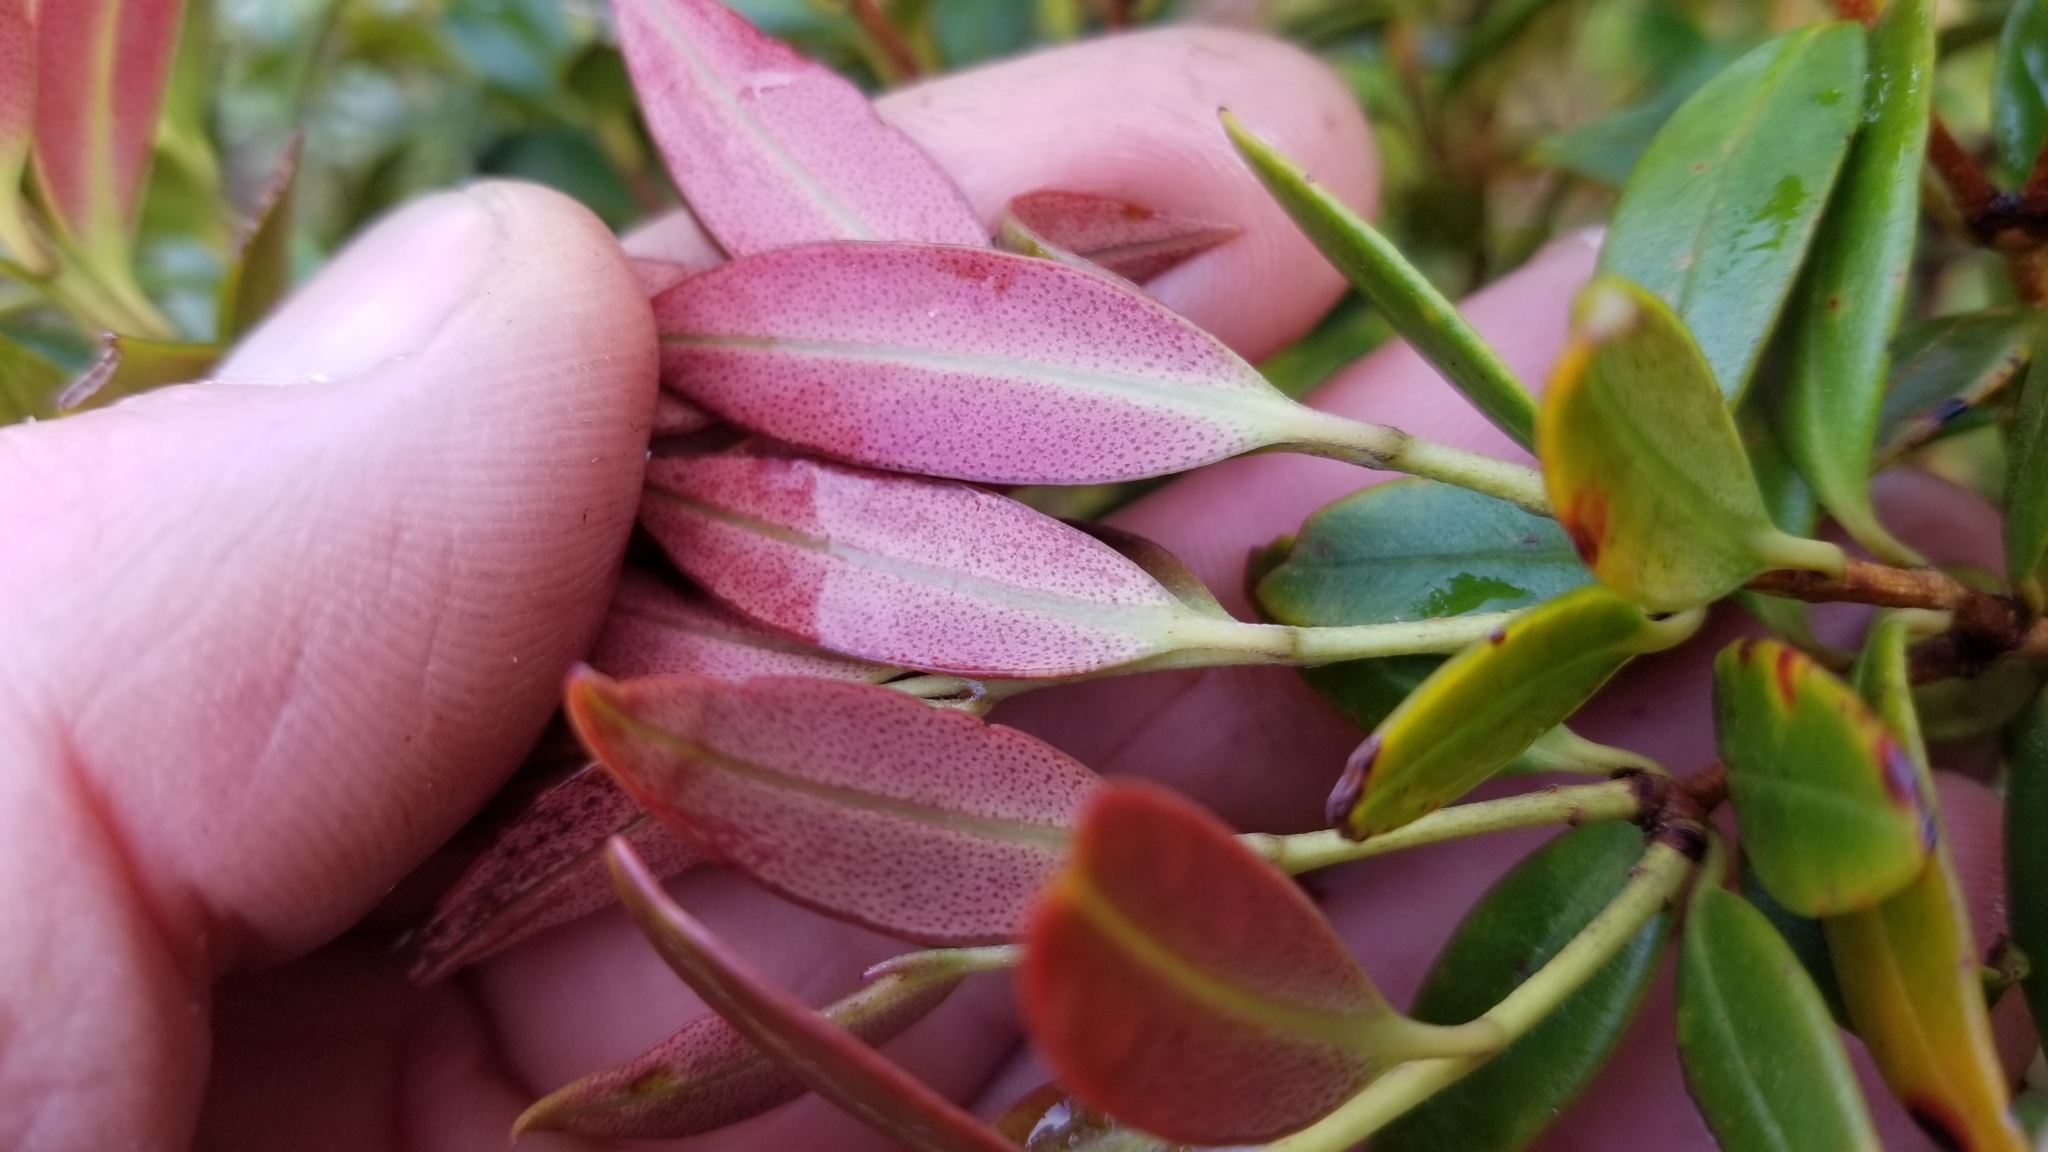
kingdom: Plantae
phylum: Tracheophyta
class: Magnoliopsida
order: Myrtales
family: Myrtaceae
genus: Metrosideros
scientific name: Metrosideros umbellata
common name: Southern rata
